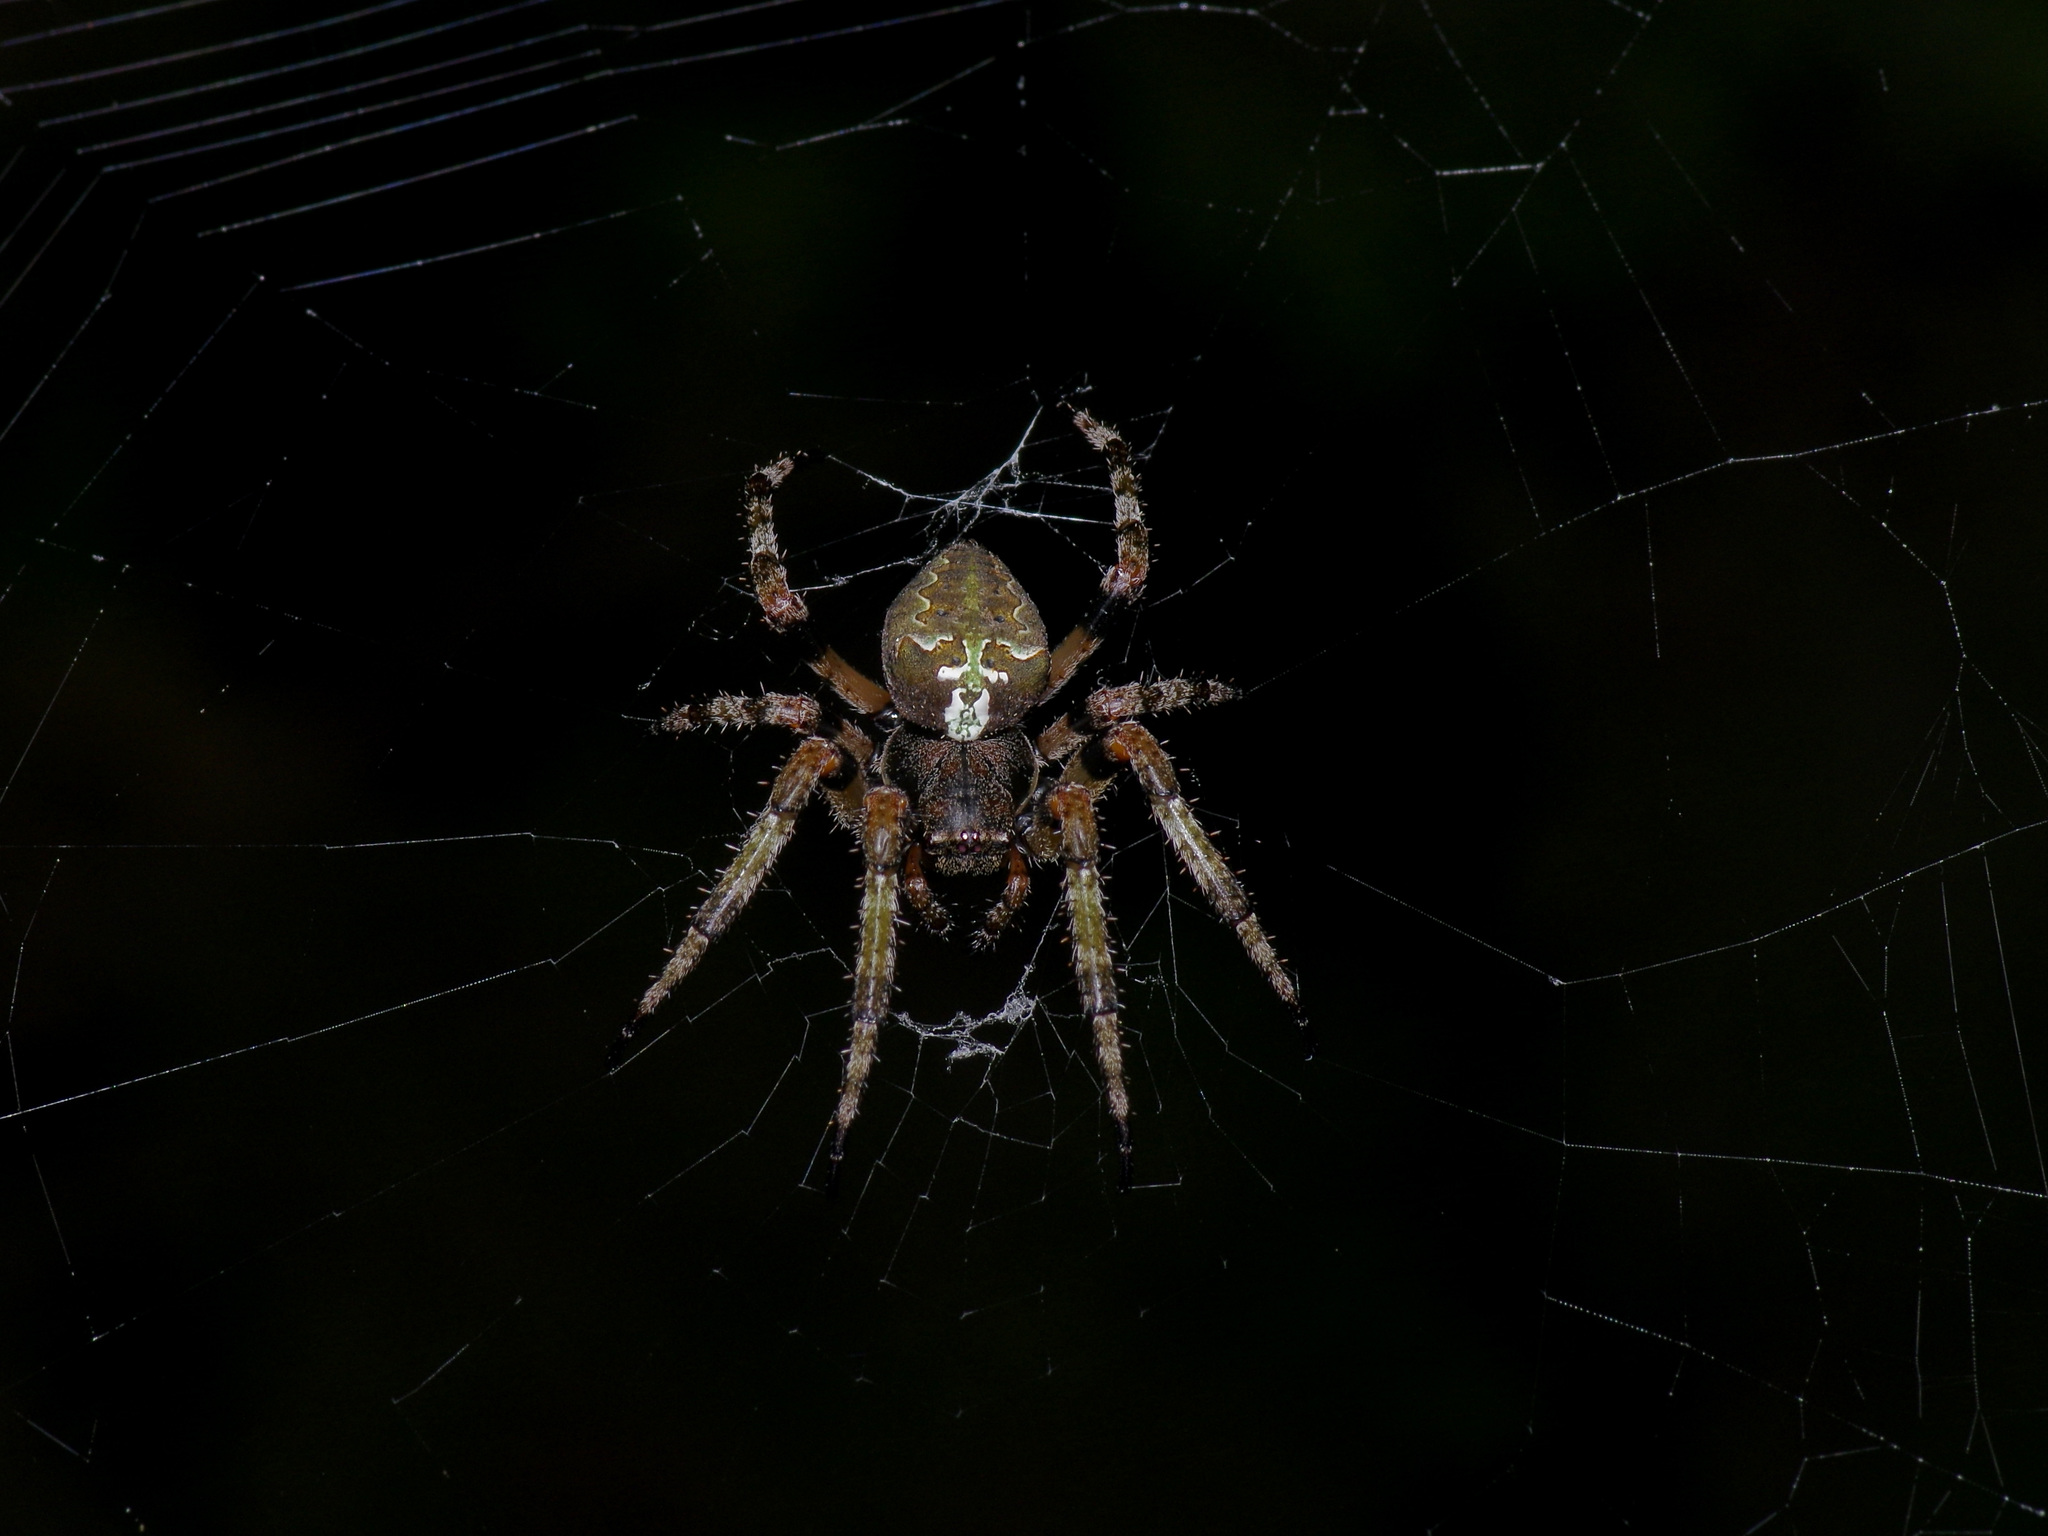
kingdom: Animalia
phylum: Arthropoda
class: Arachnida
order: Araneae
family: Araneidae
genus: Araneus
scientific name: Araneus bicentenarius
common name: Giant lichen orbweaver
